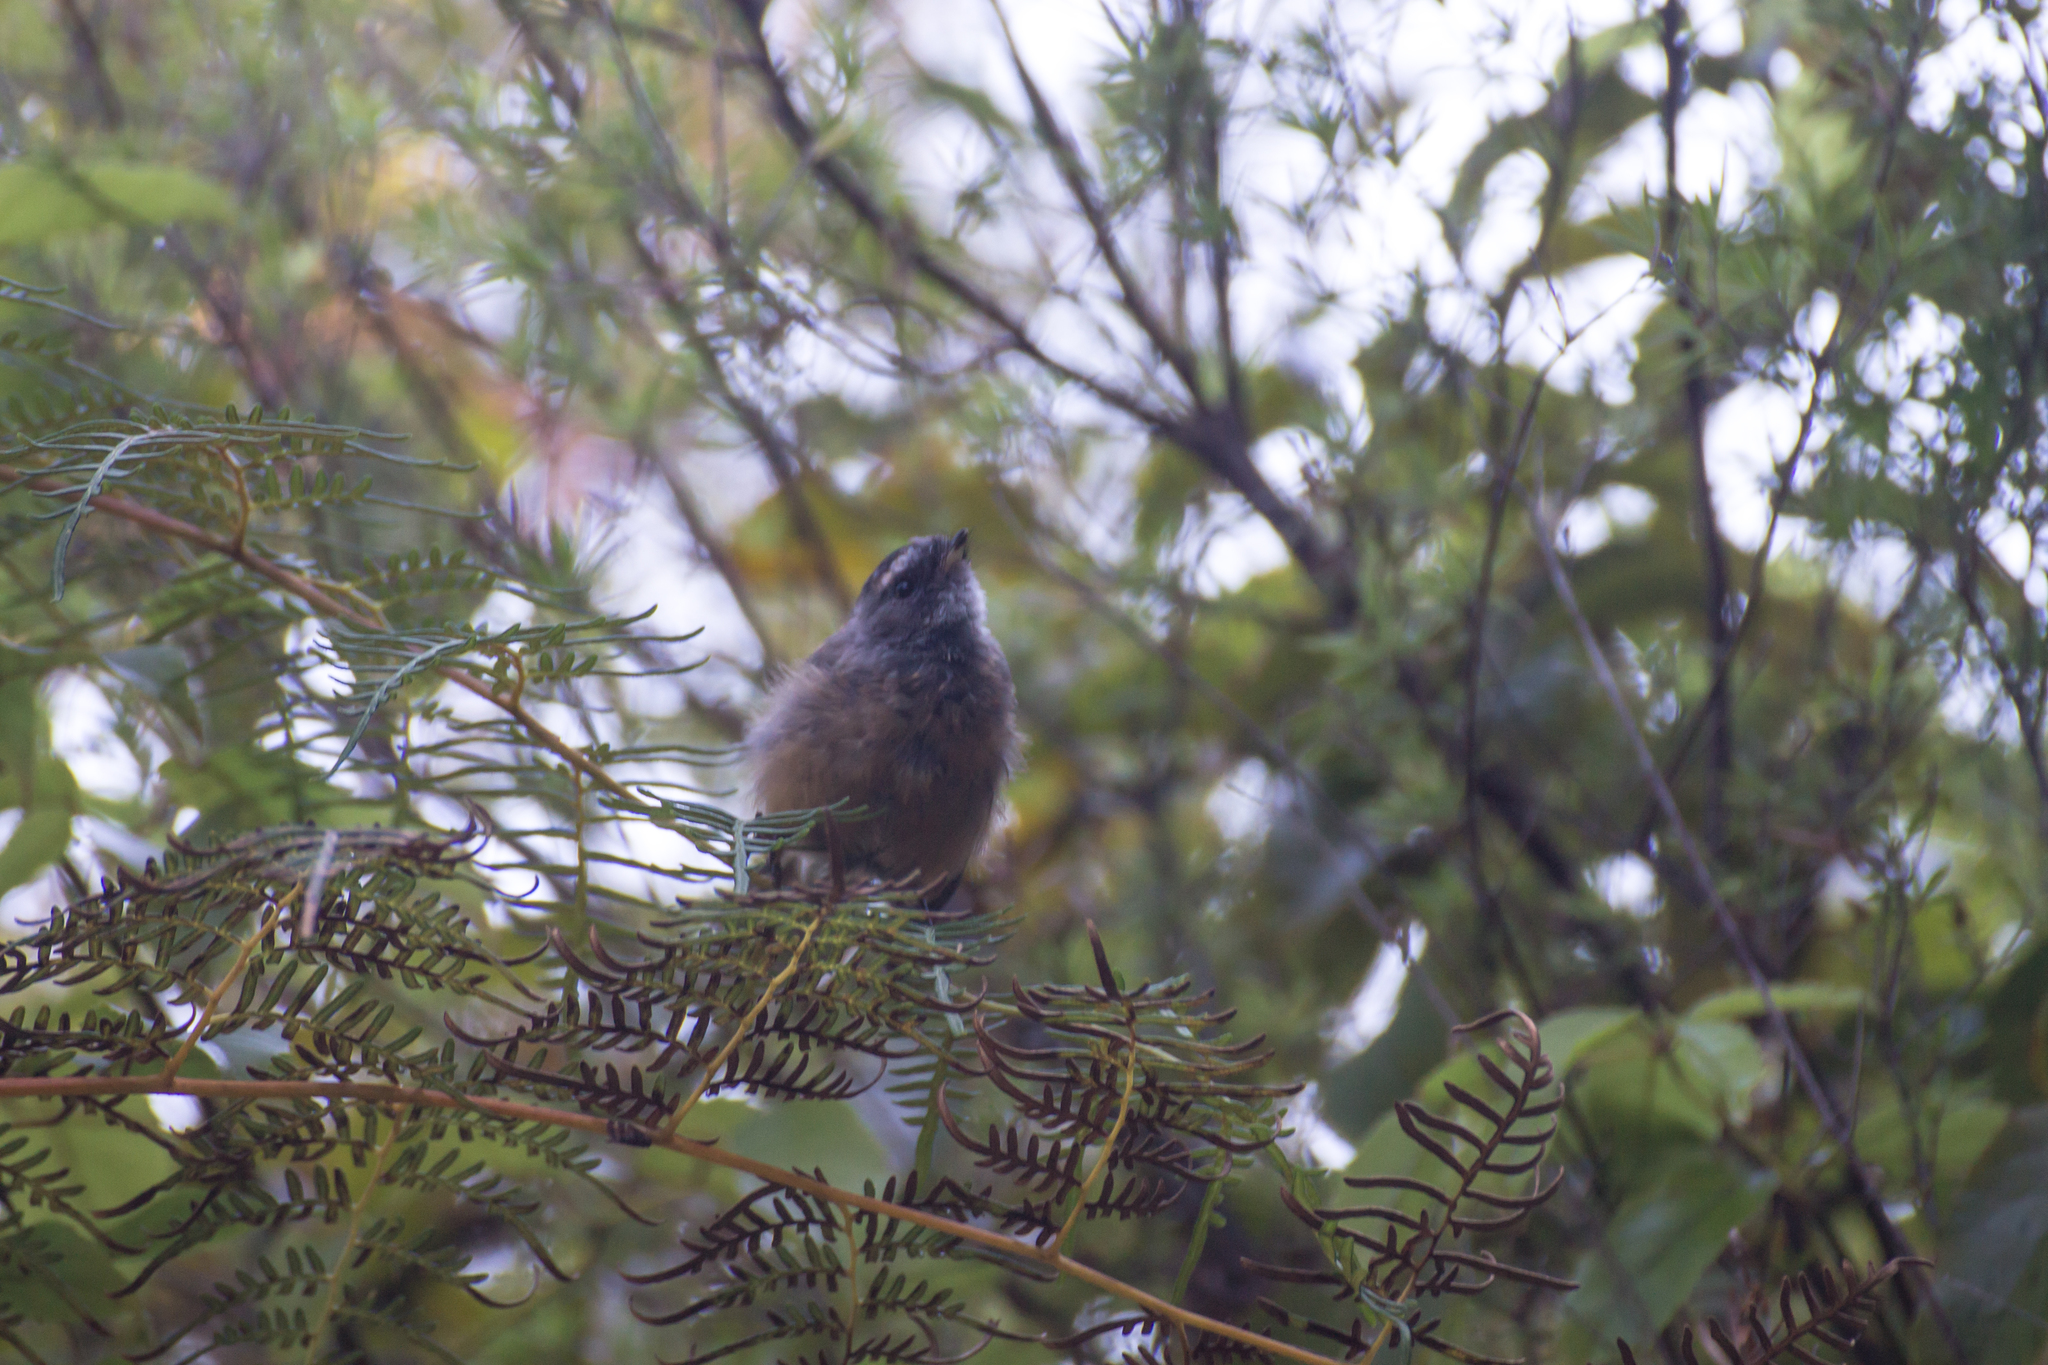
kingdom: Animalia
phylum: Chordata
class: Aves
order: Passeriformes
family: Rhipiduridae
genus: Rhipidura
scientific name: Rhipidura fuliginosa
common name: New zealand fantail
